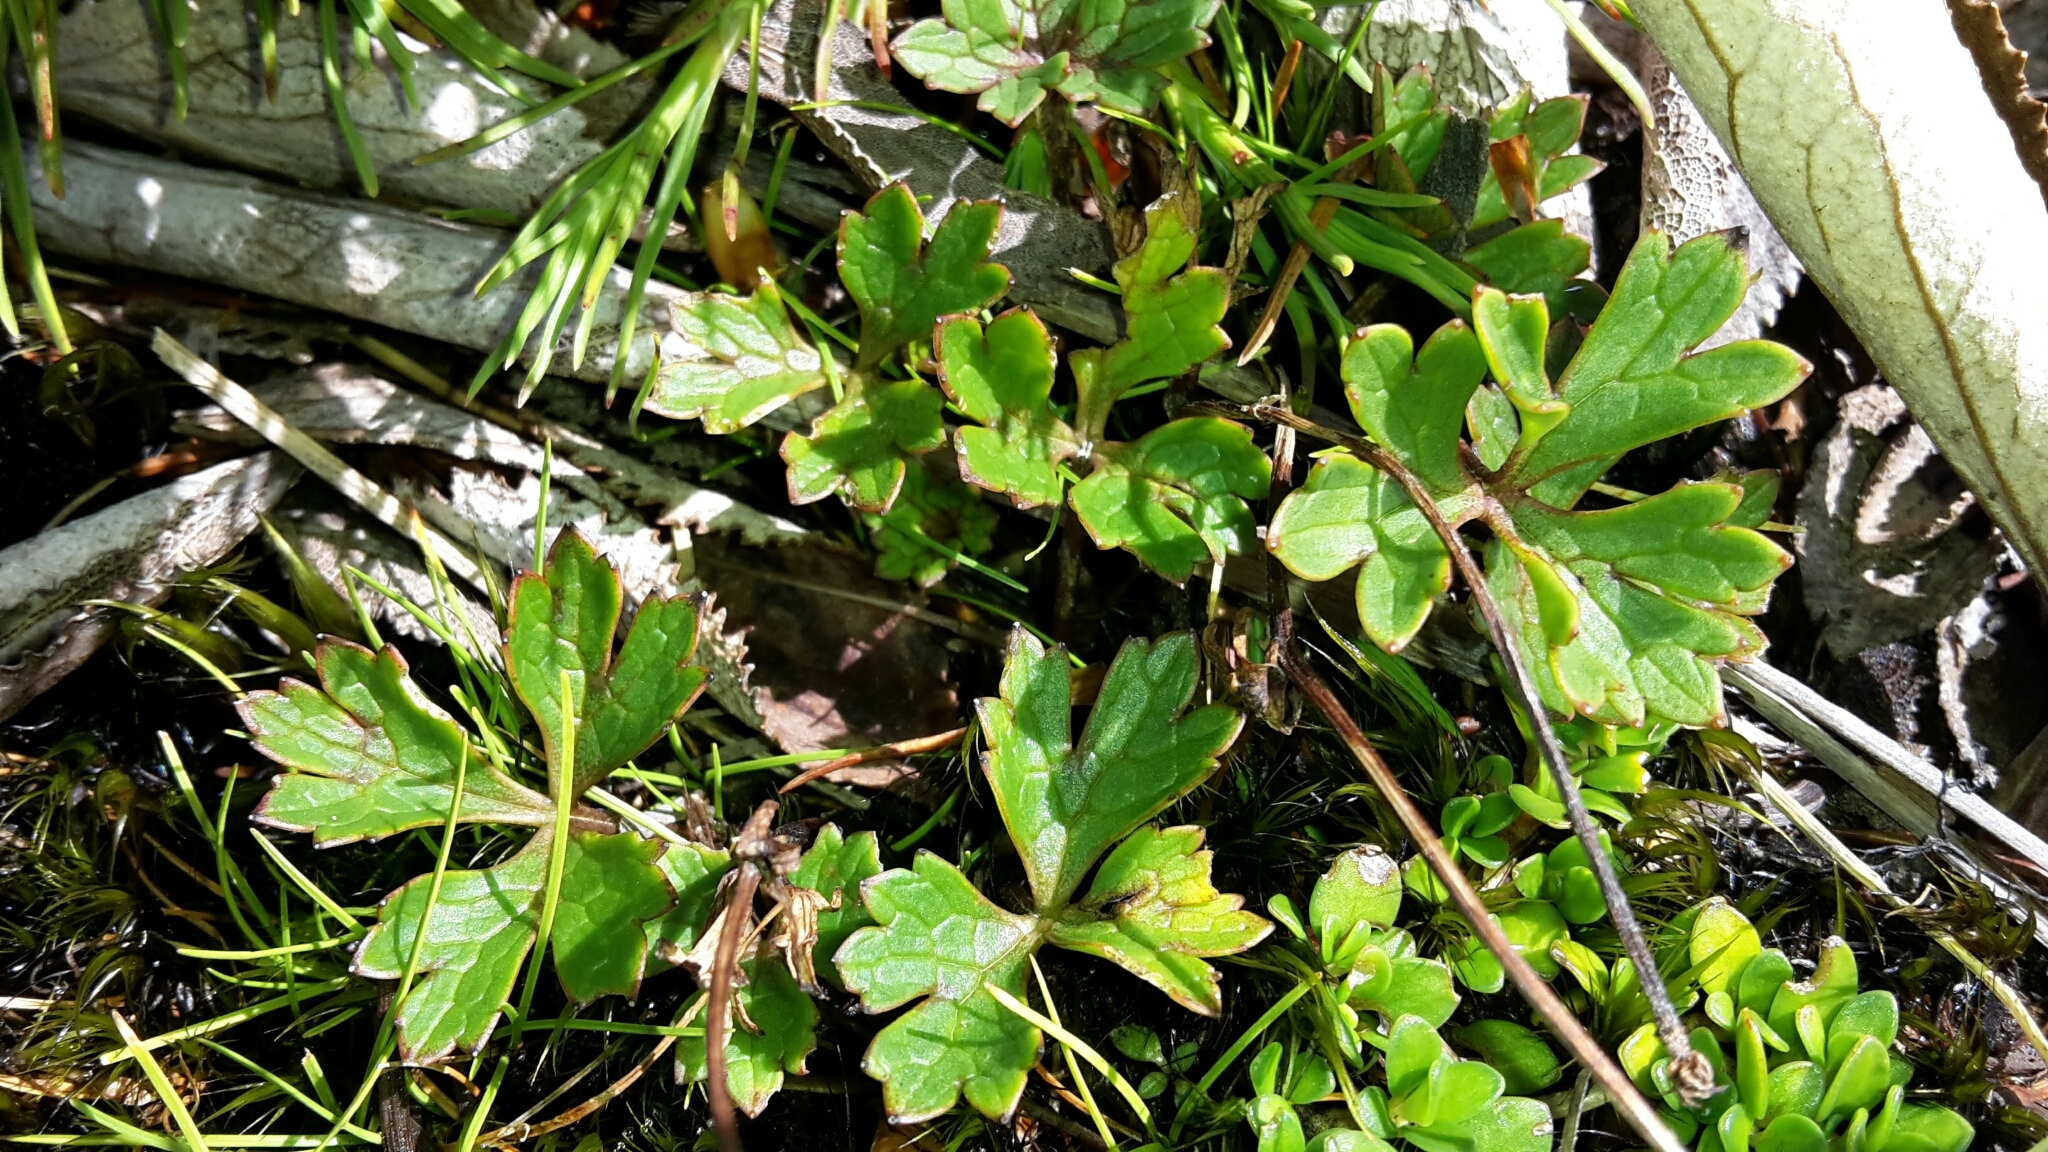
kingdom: Plantae
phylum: Tracheophyta
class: Magnoliopsida
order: Ranunculales
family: Ranunculaceae
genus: Ranunculus
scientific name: Ranunculus verticillatus
